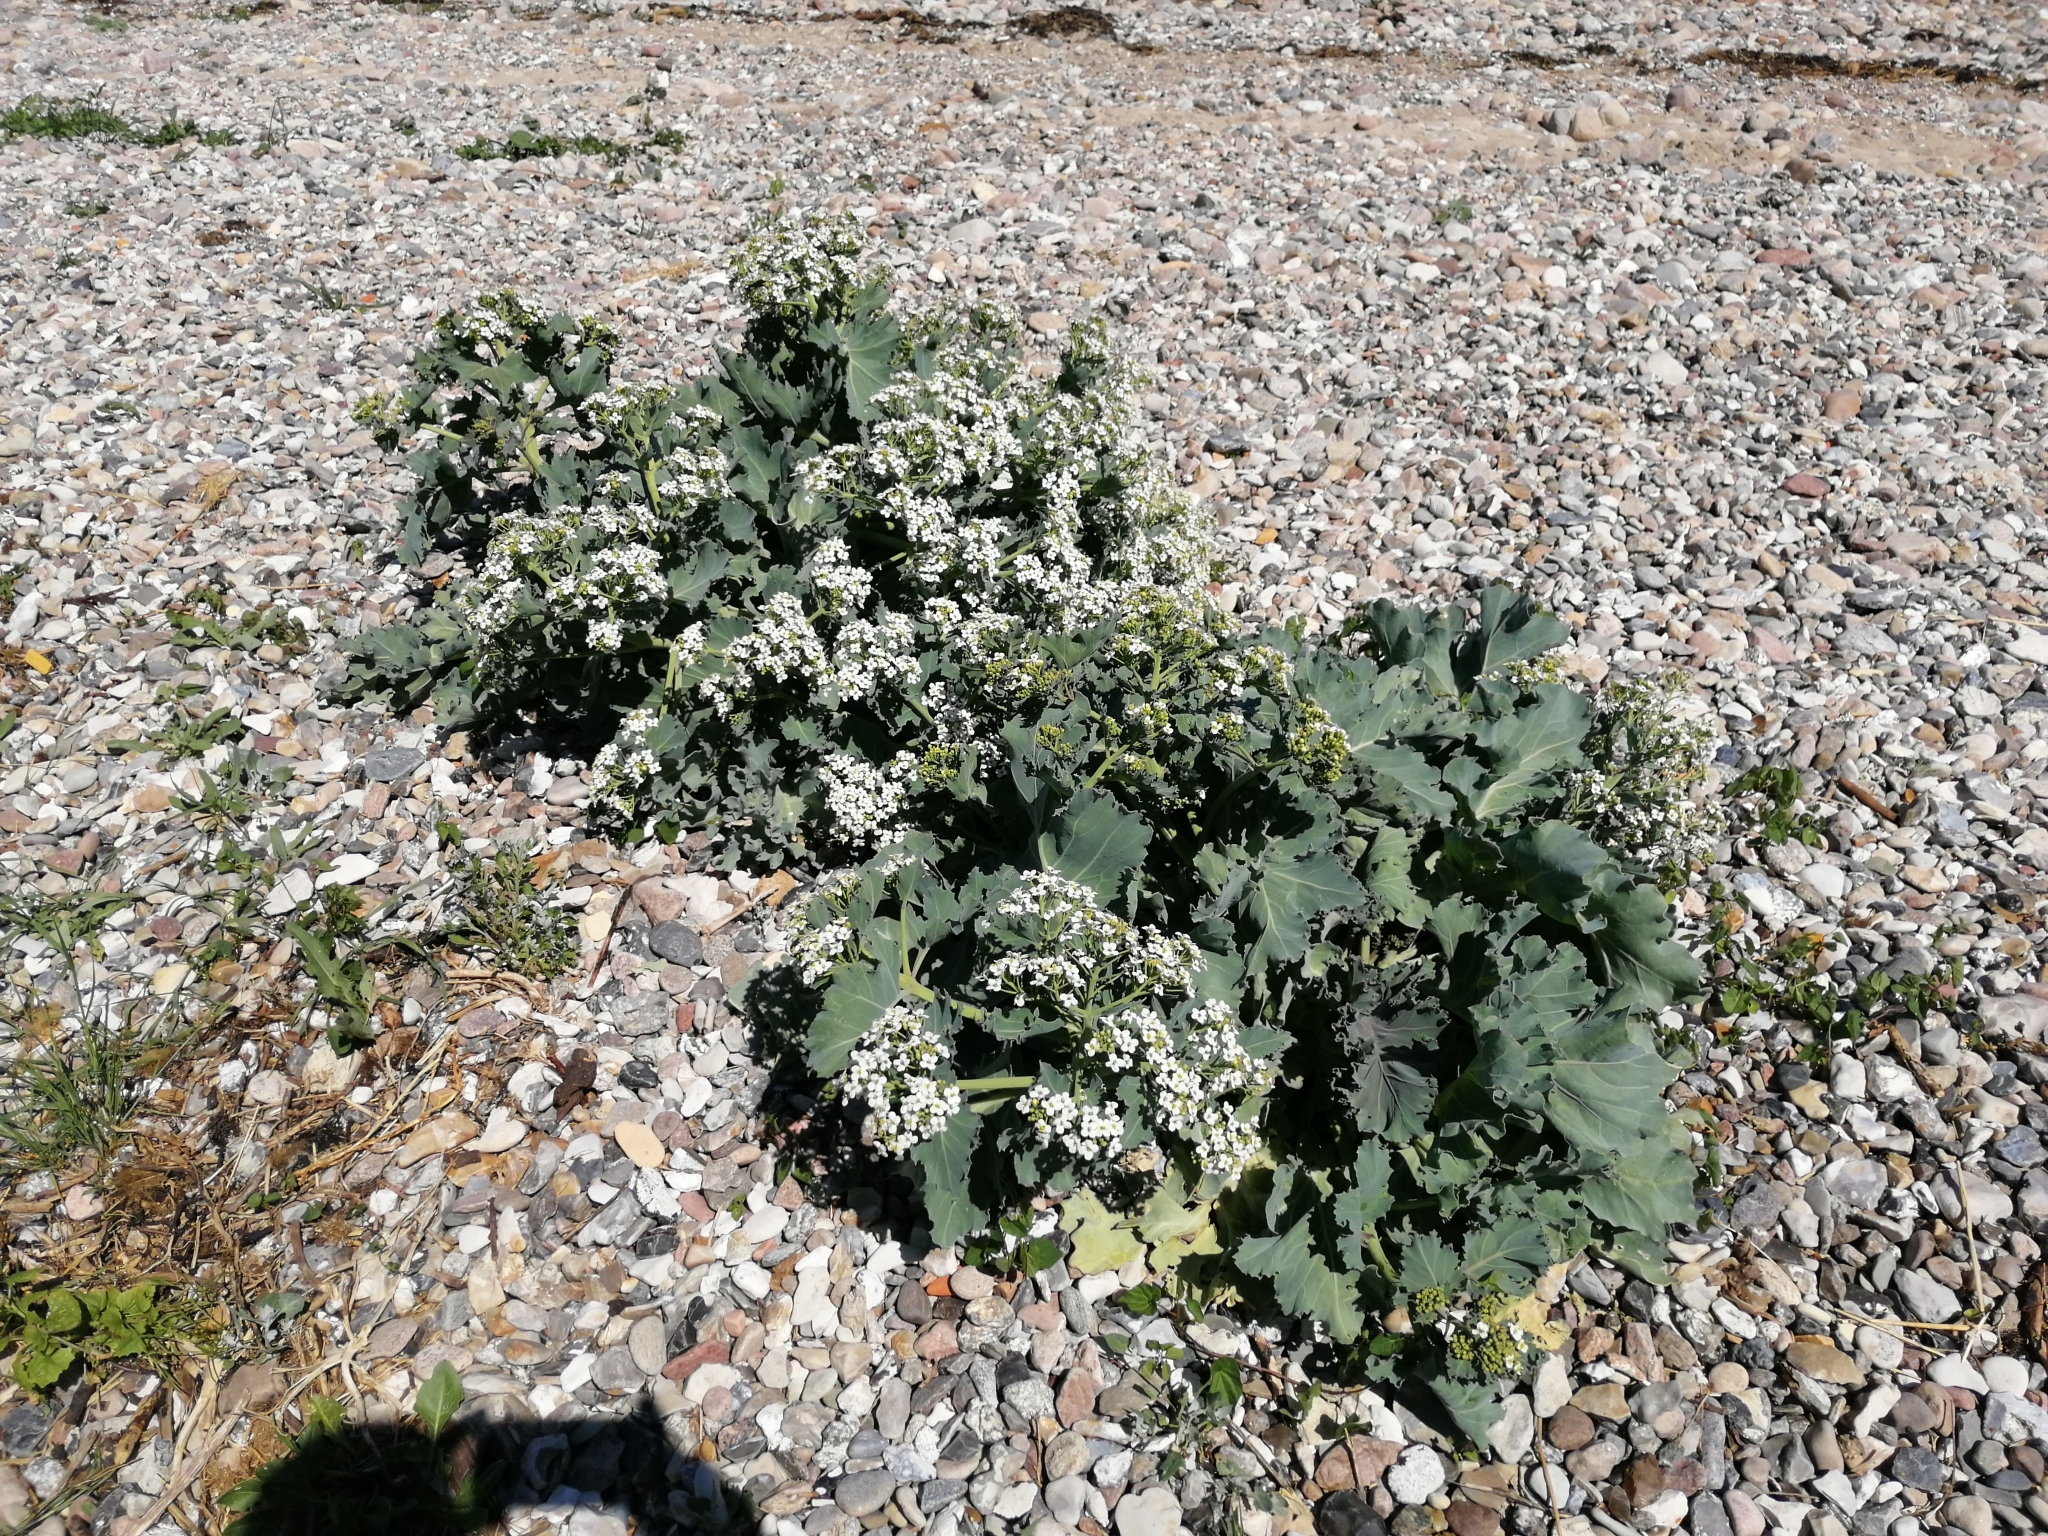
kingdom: Plantae
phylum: Tracheophyta
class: Magnoliopsida
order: Brassicales
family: Brassicaceae
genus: Crambe
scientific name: Crambe maritima
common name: Sea-kale
